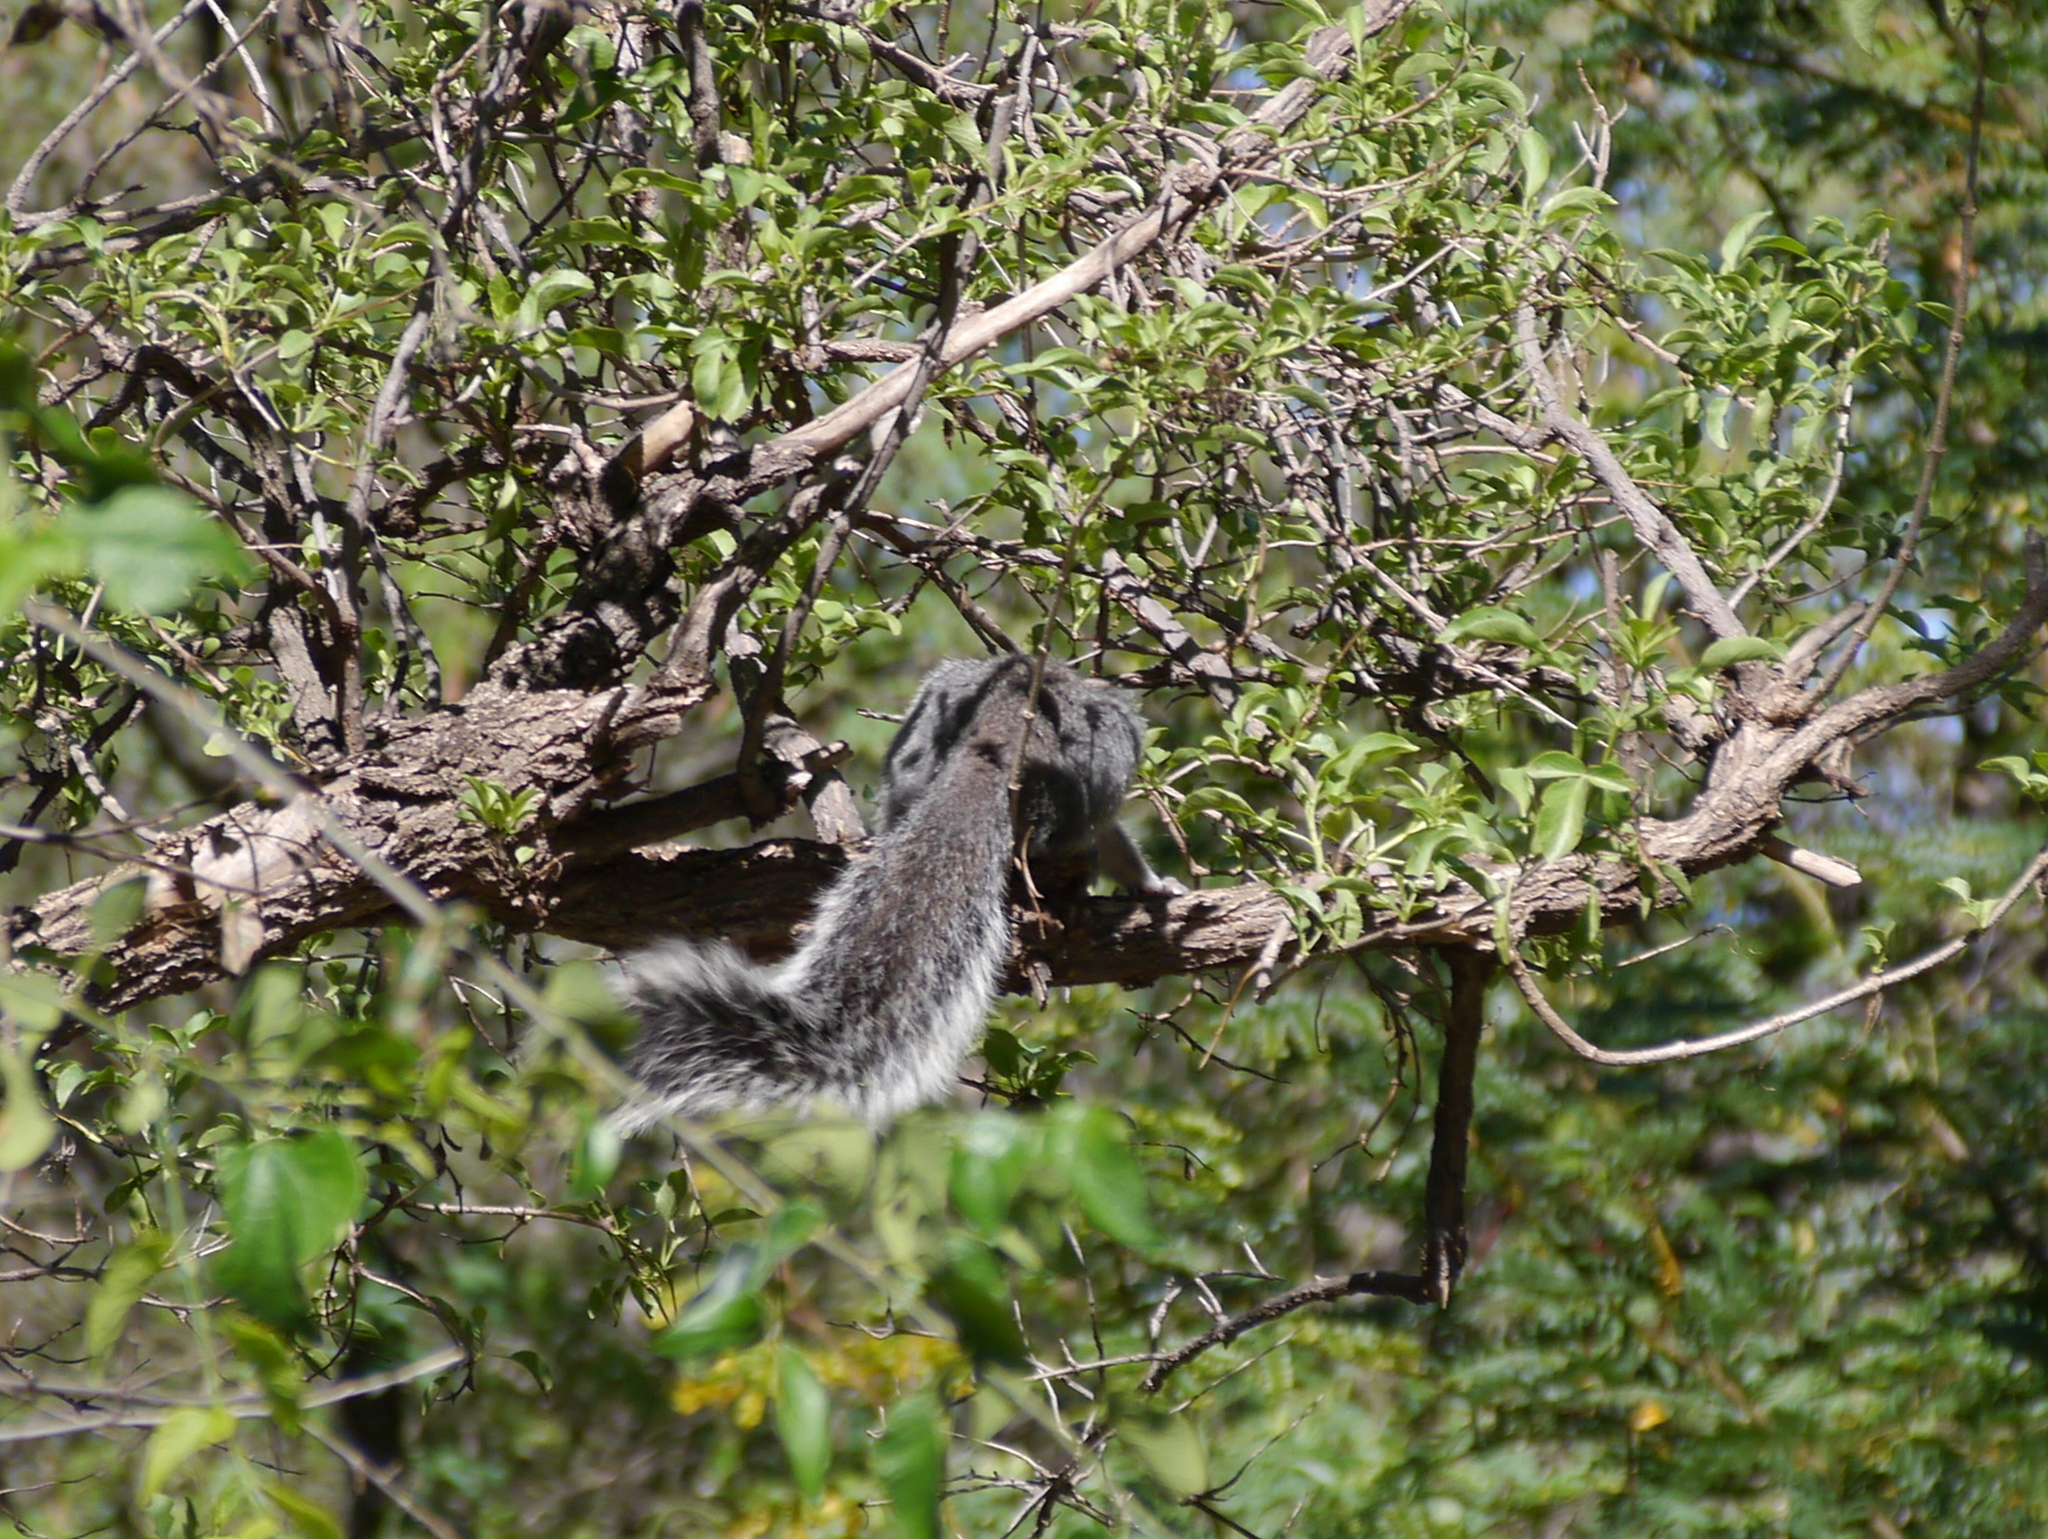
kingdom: Animalia
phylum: Chordata
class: Mammalia
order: Rodentia
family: Sciuridae
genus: Sciurus
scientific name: Sciurus arizonensis
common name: Arizona gray squirrel
